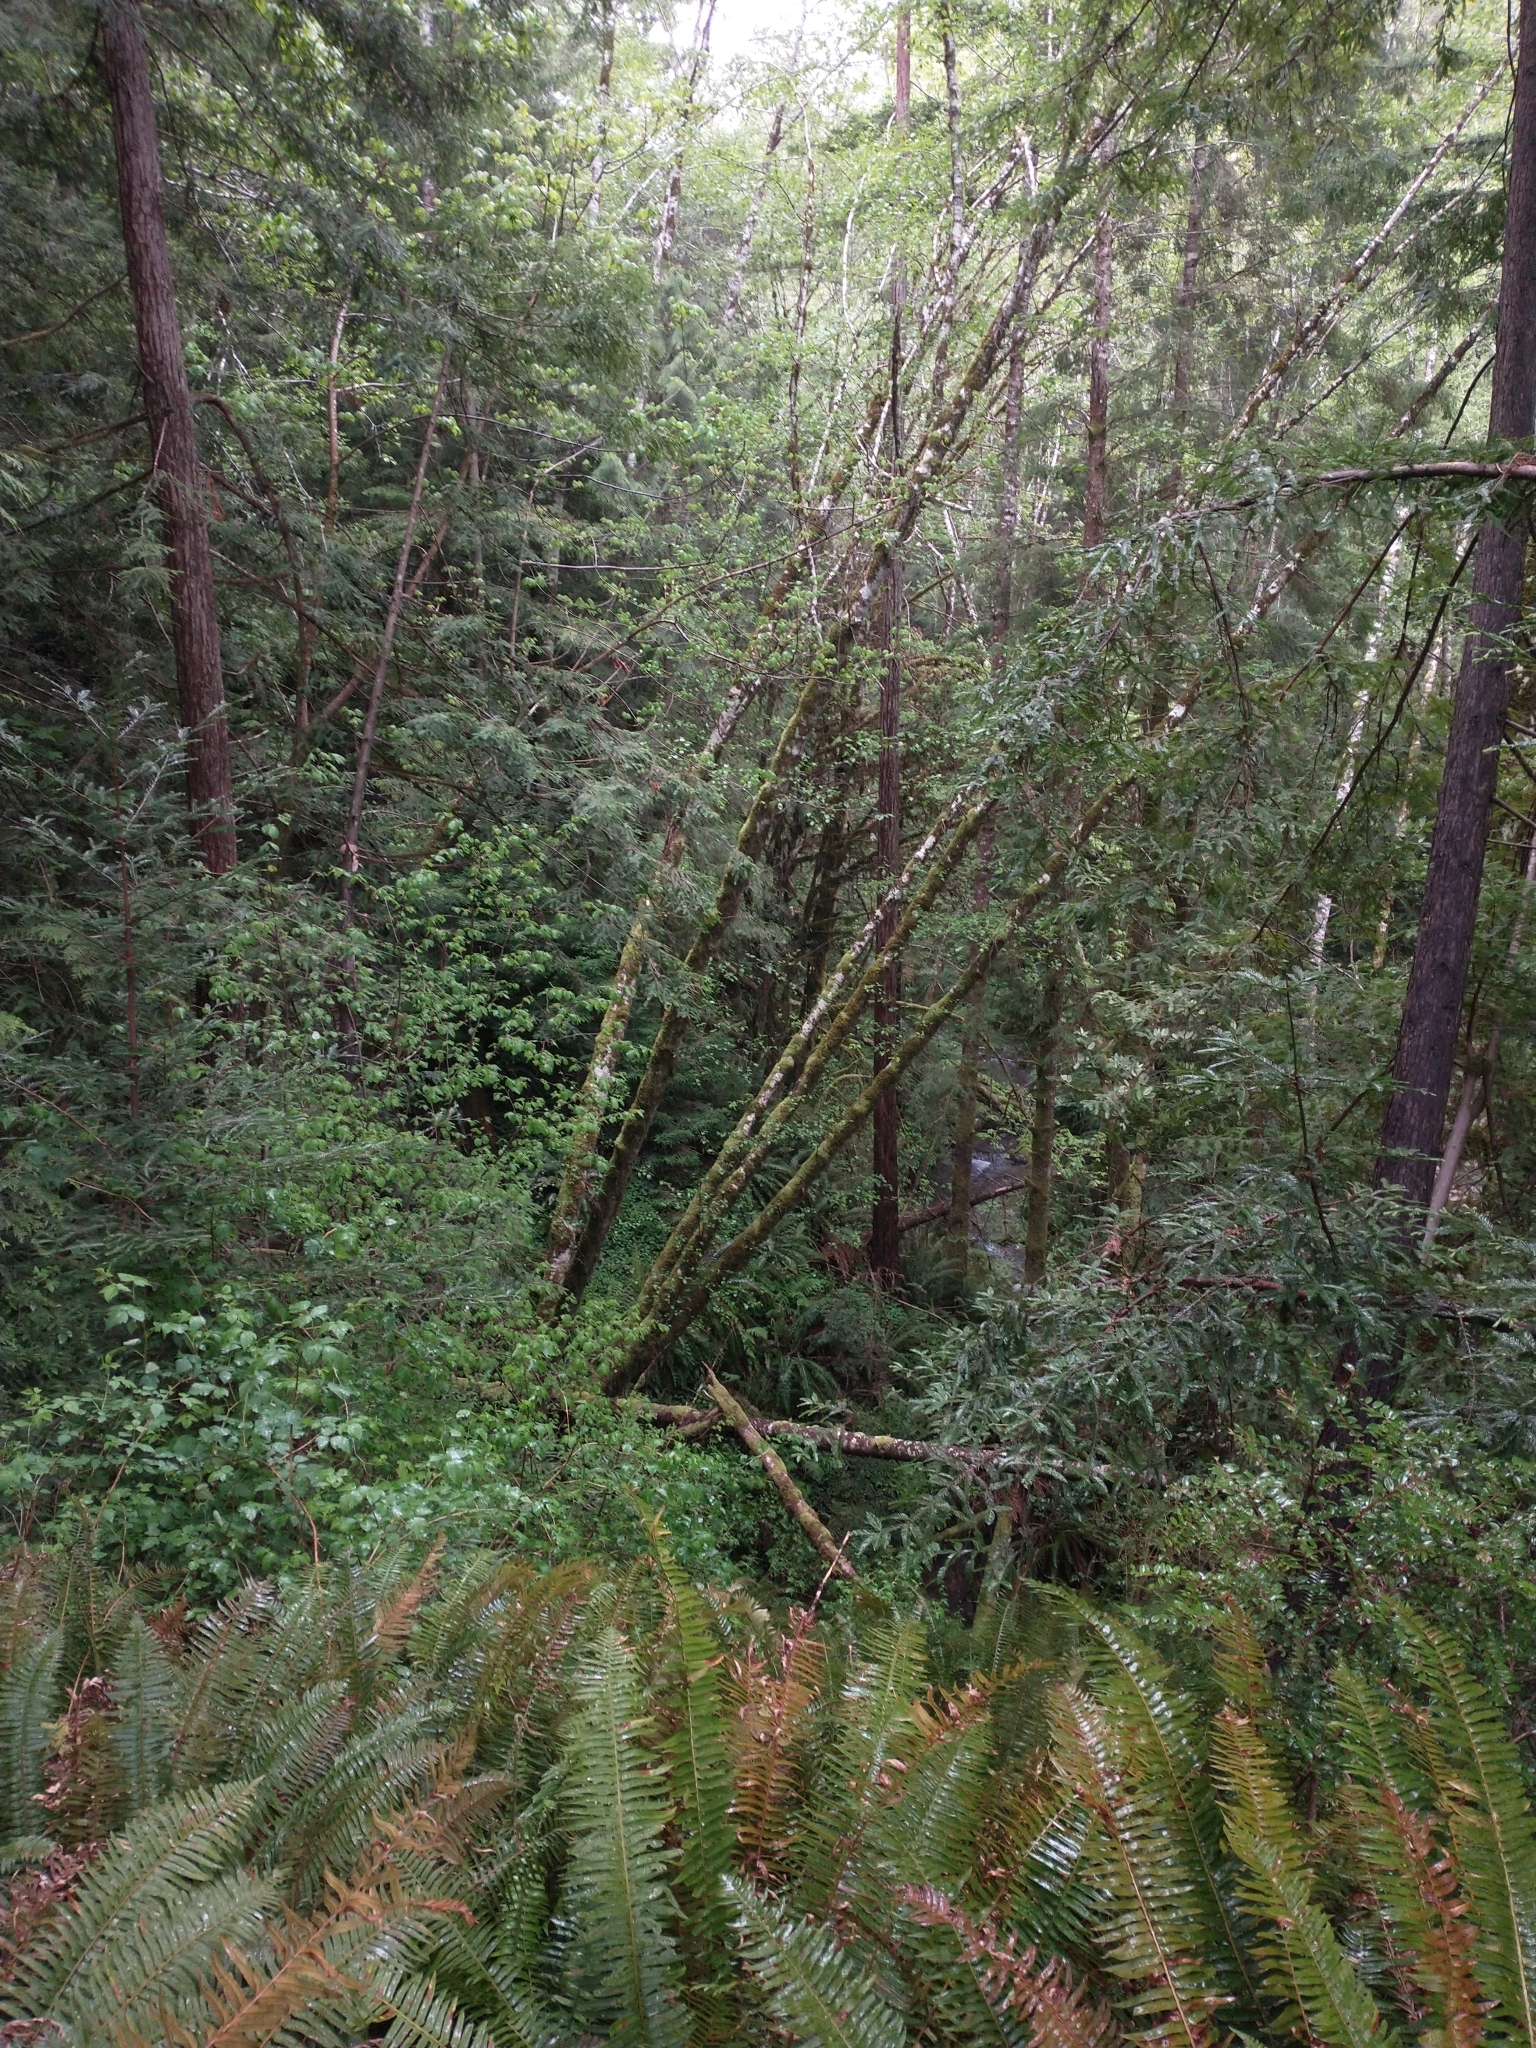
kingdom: Plantae
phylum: Tracheophyta
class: Polypodiopsida
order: Polypodiales
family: Dryopteridaceae
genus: Polystichum
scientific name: Polystichum munitum
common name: Western sword-fern
